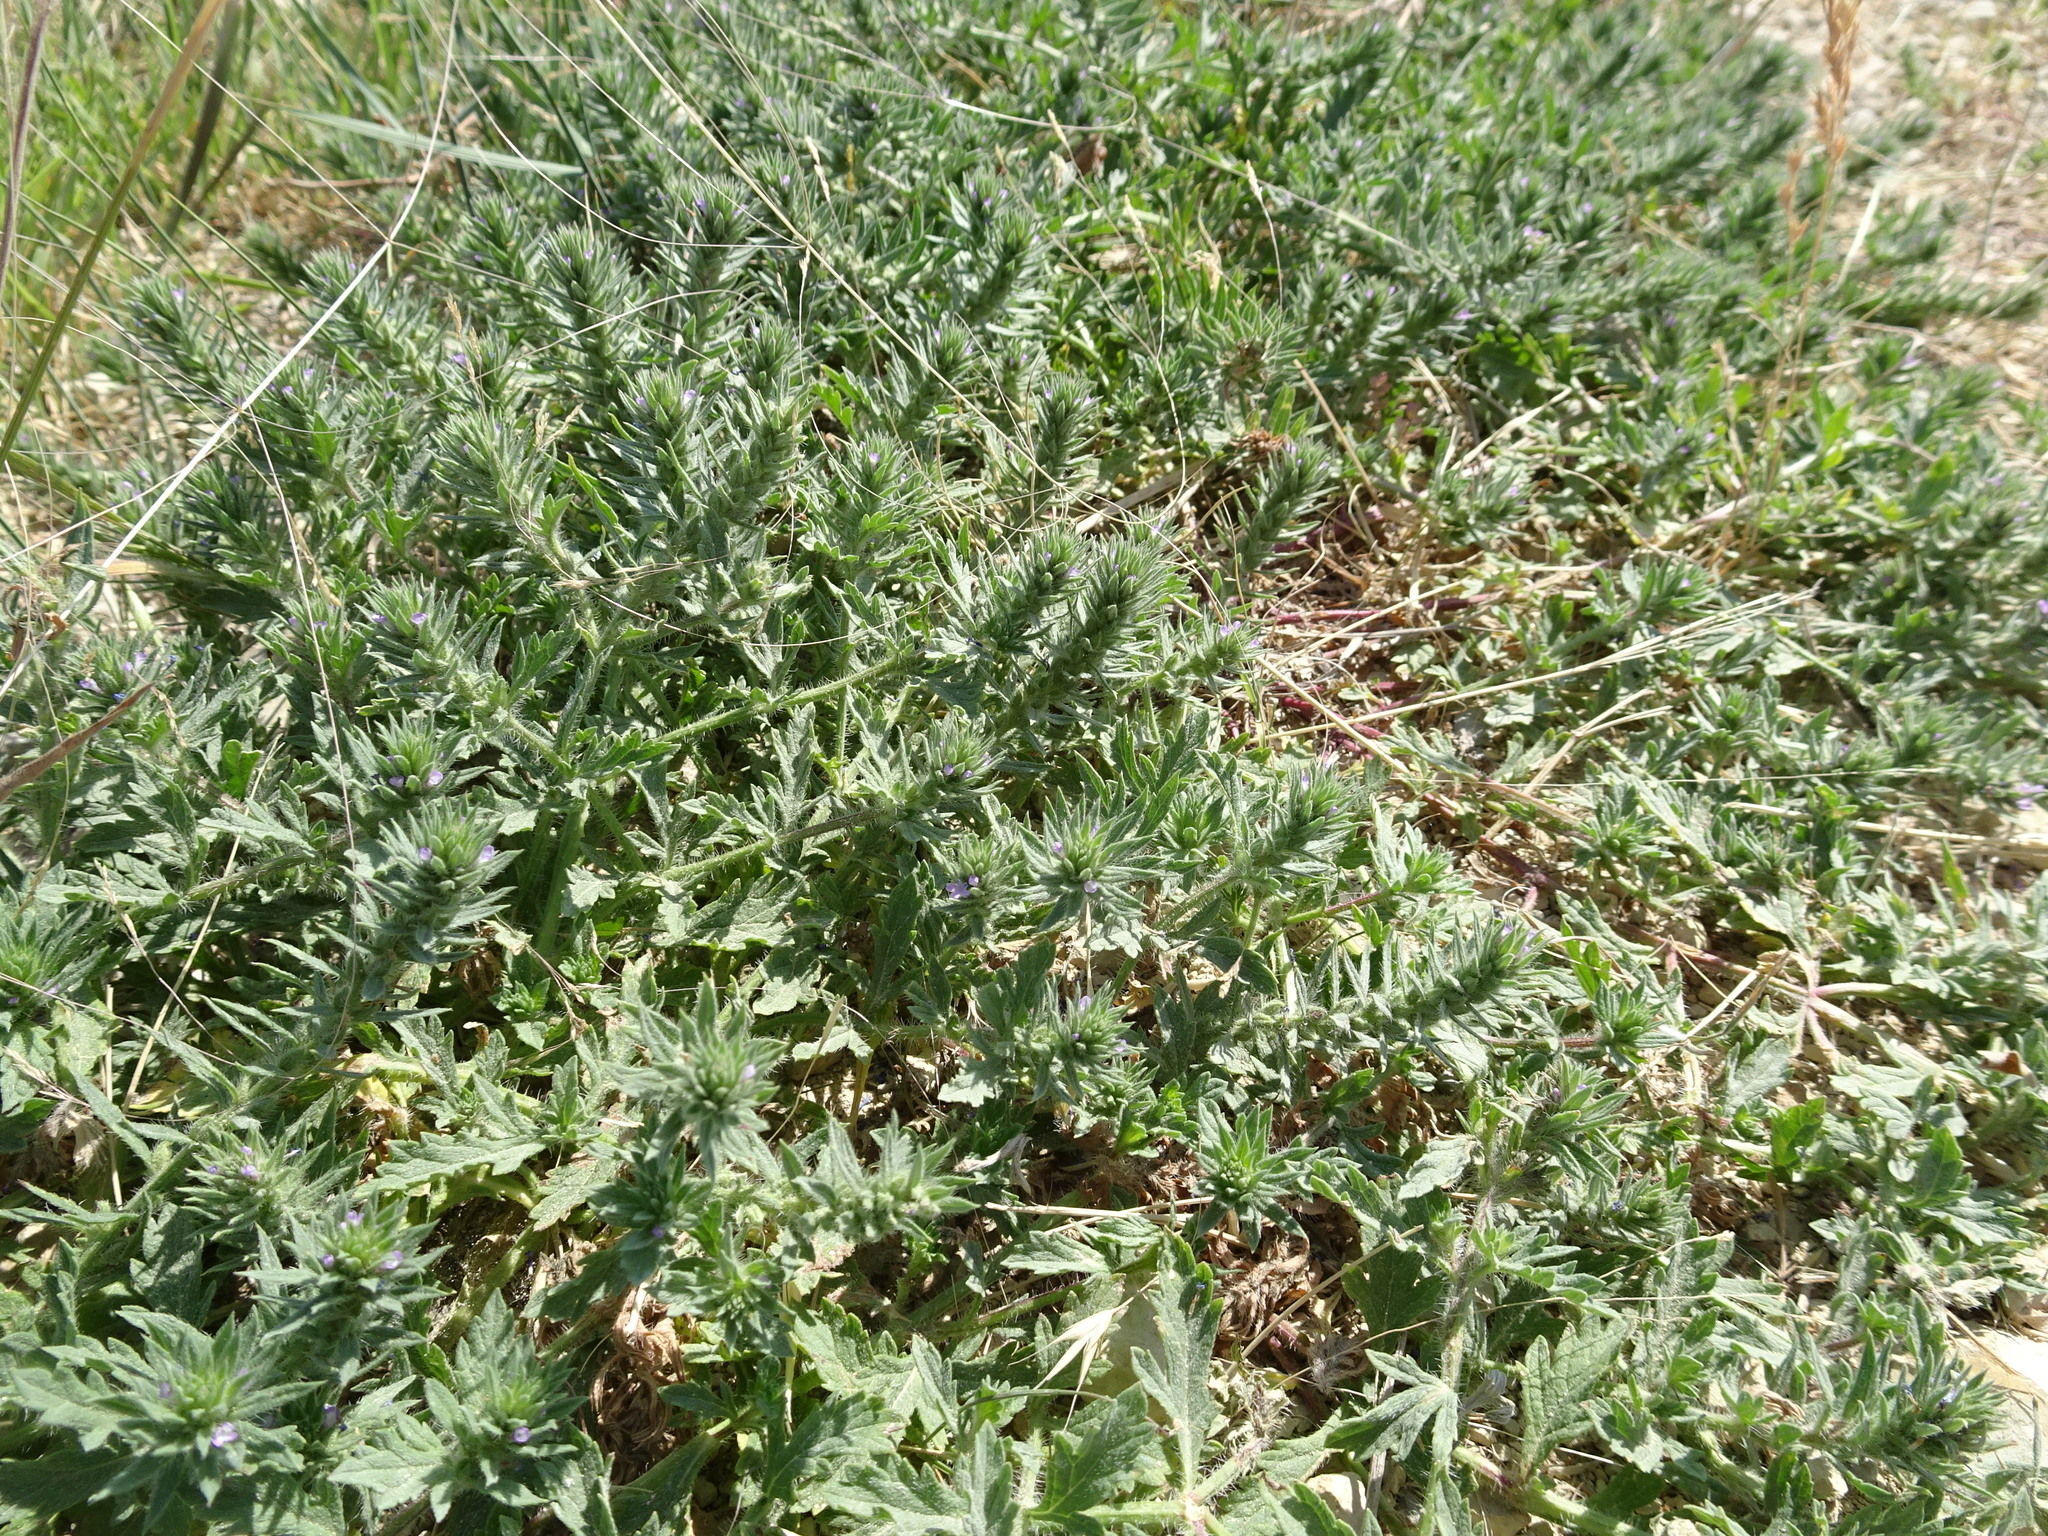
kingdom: Plantae
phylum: Tracheophyta
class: Magnoliopsida
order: Lamiales
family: Verbenaceae
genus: Verbena
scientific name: Verbena bracteata
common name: Bracted vervain
